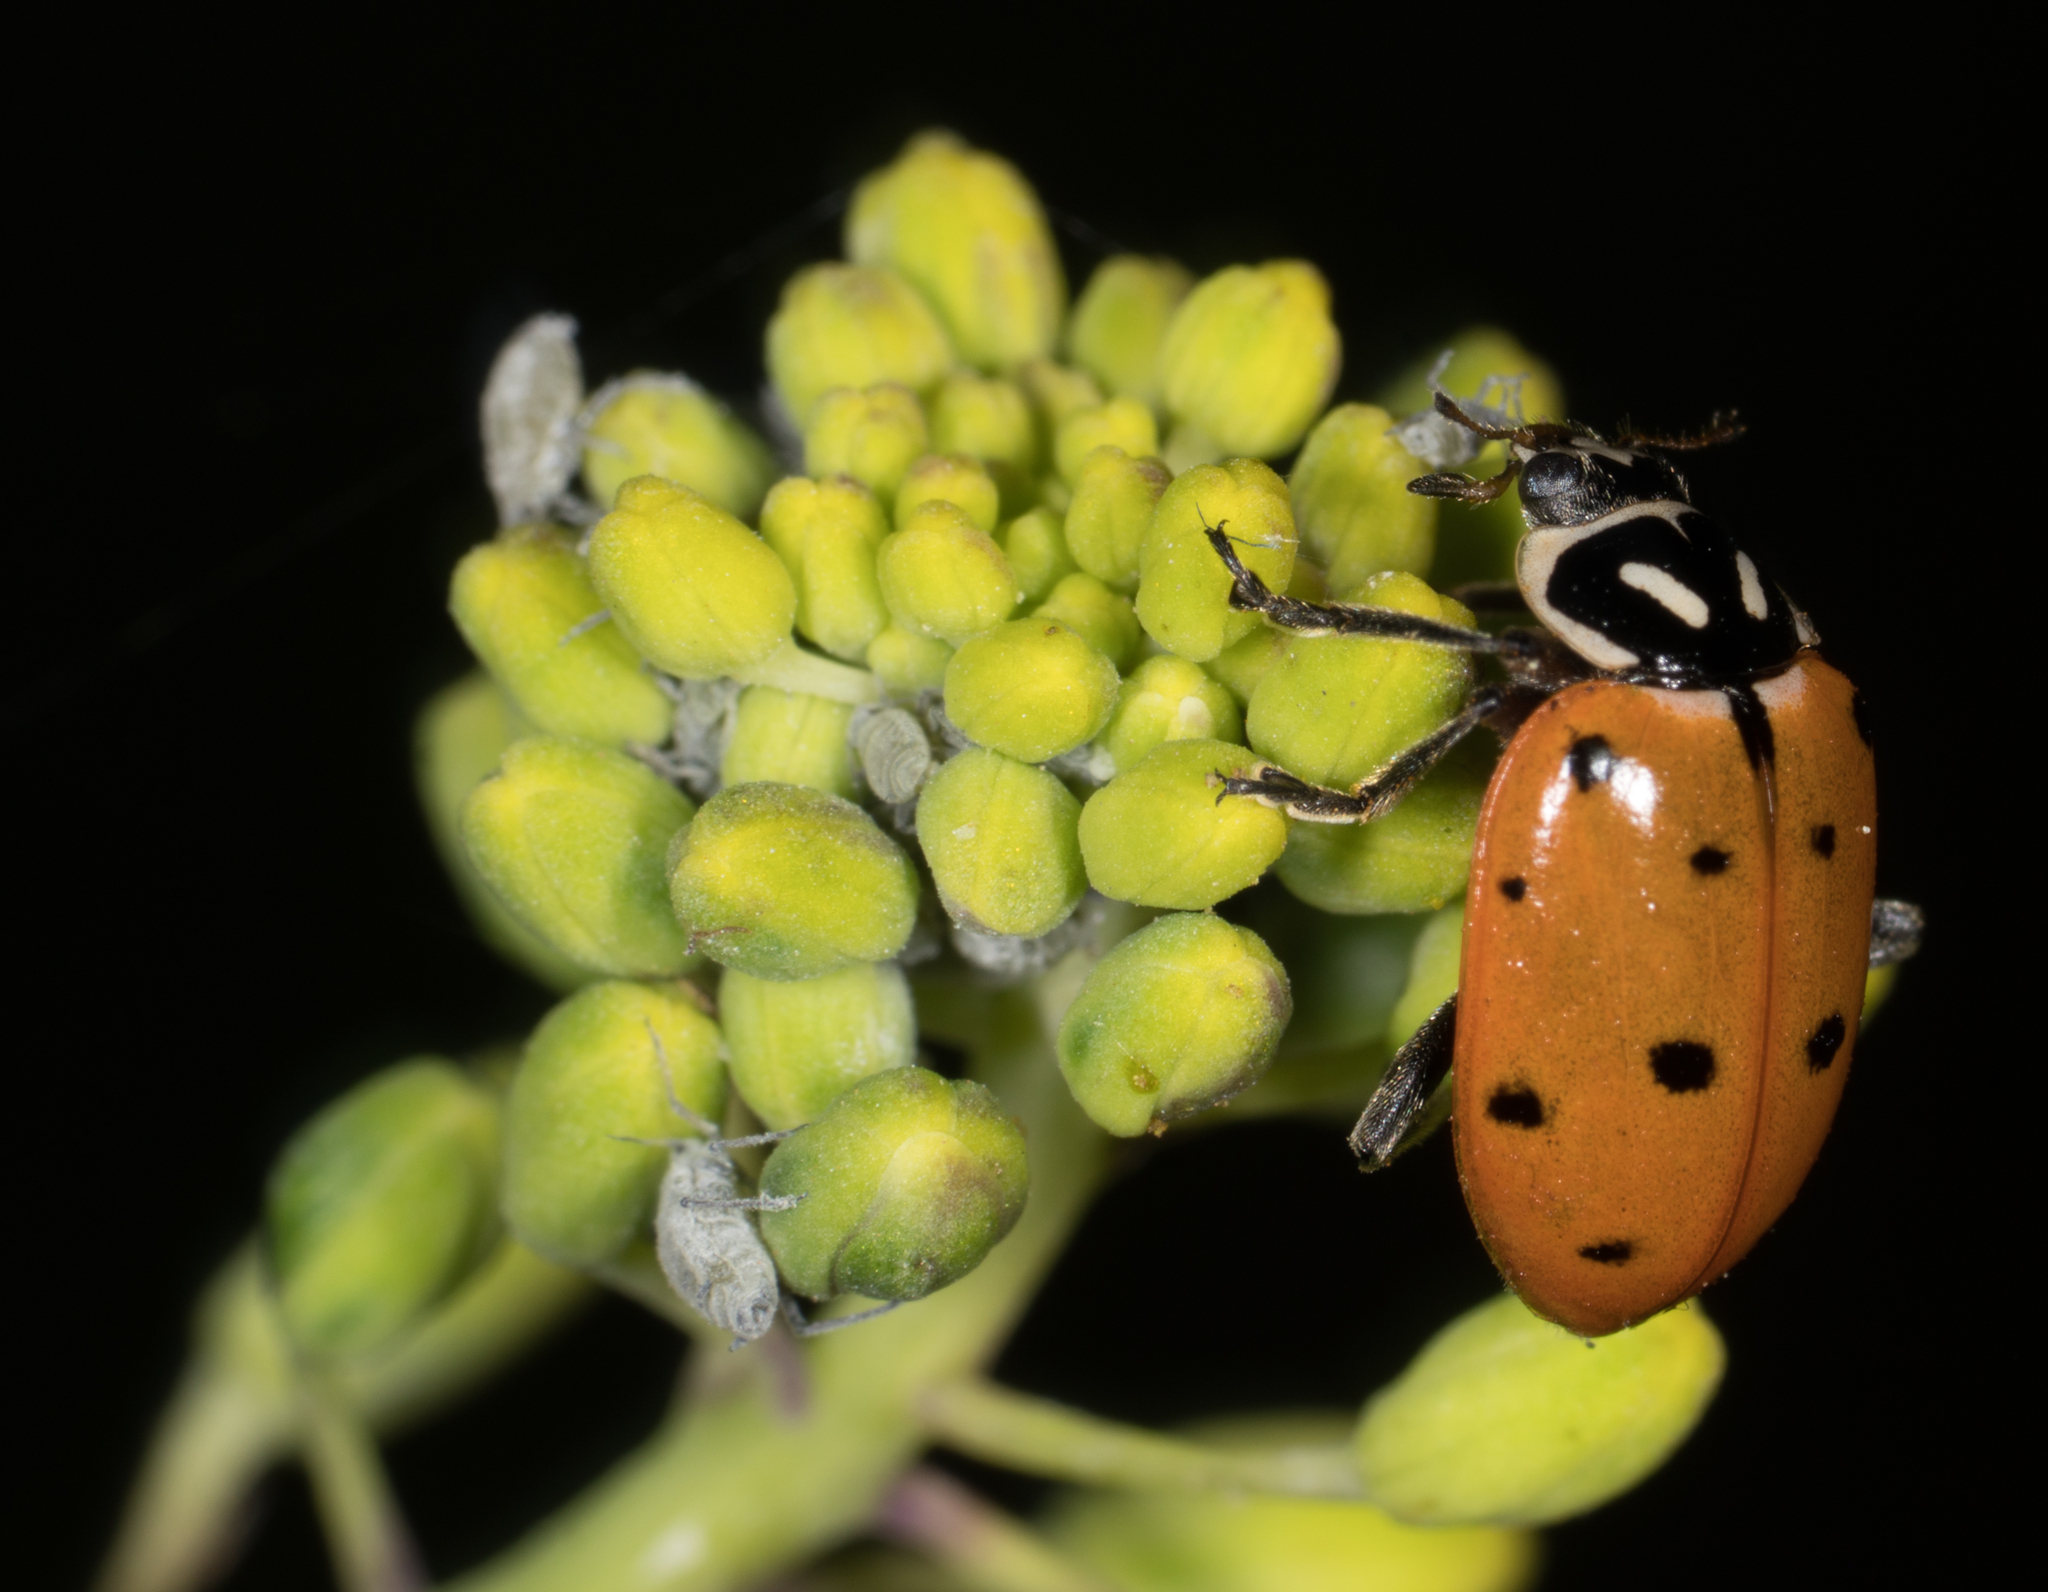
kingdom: Animalia
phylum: Arthropoda
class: Insecta
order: Coleoptera
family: Coccinellidae
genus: Hippodamia
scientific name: Hippodamia convergens
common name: Convergent lady beetle
